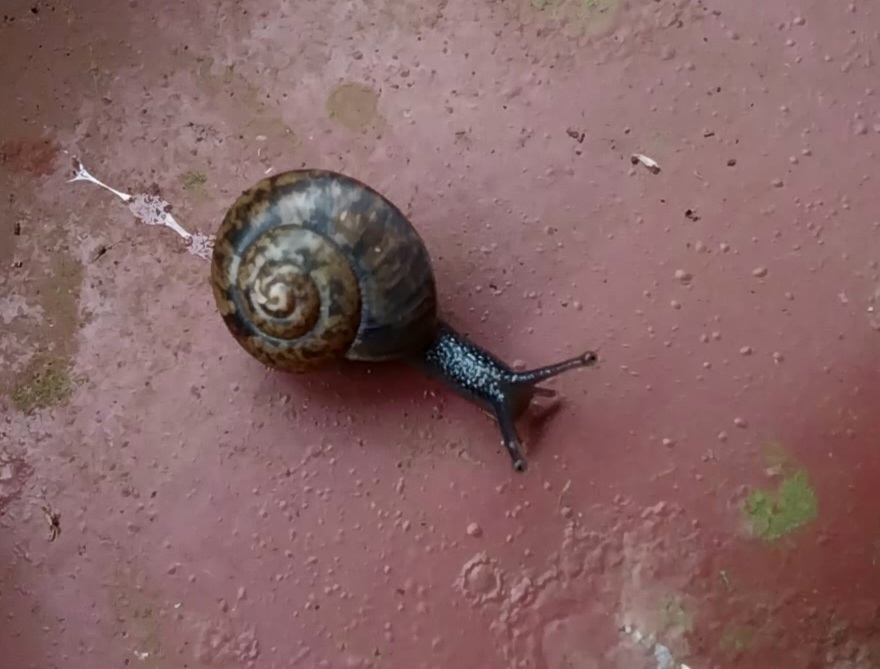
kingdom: Animalia
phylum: Mollusca
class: Gastropoda
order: Stylommatophora
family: Camaenidae
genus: Bradybaena
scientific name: Bradybaena similaris
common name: Asian trampsnail
